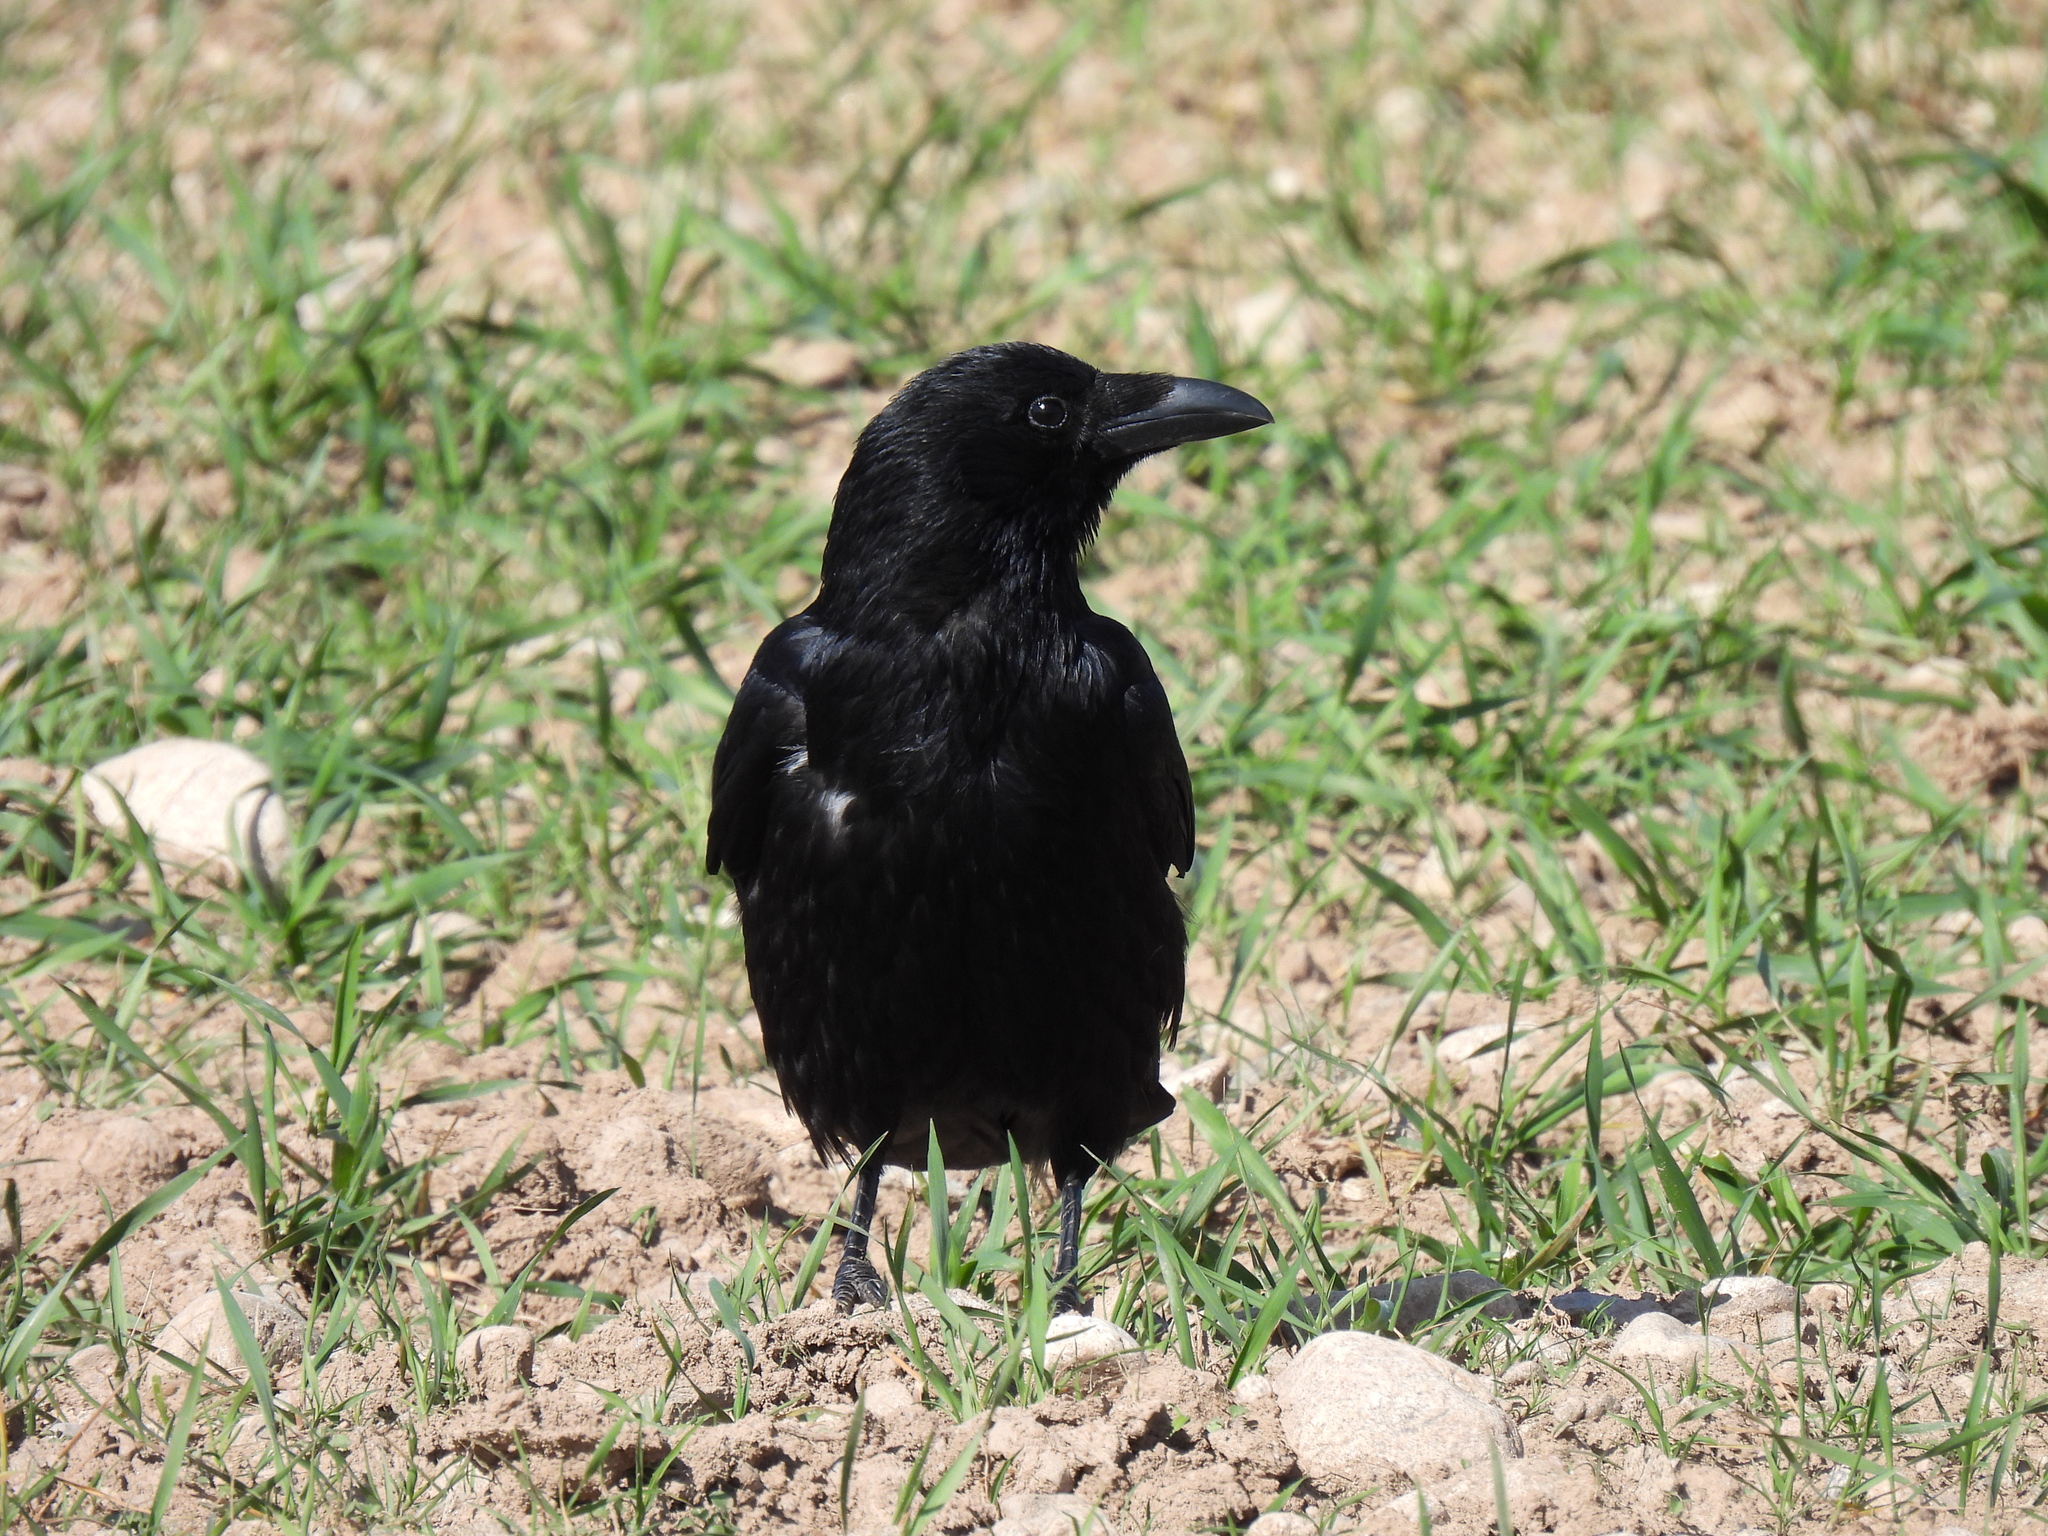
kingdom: Animalia
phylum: Chordata
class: Aves
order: Passeriformes
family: Corvidae
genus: Corvus
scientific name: Corvus corone
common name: Carrion crow
